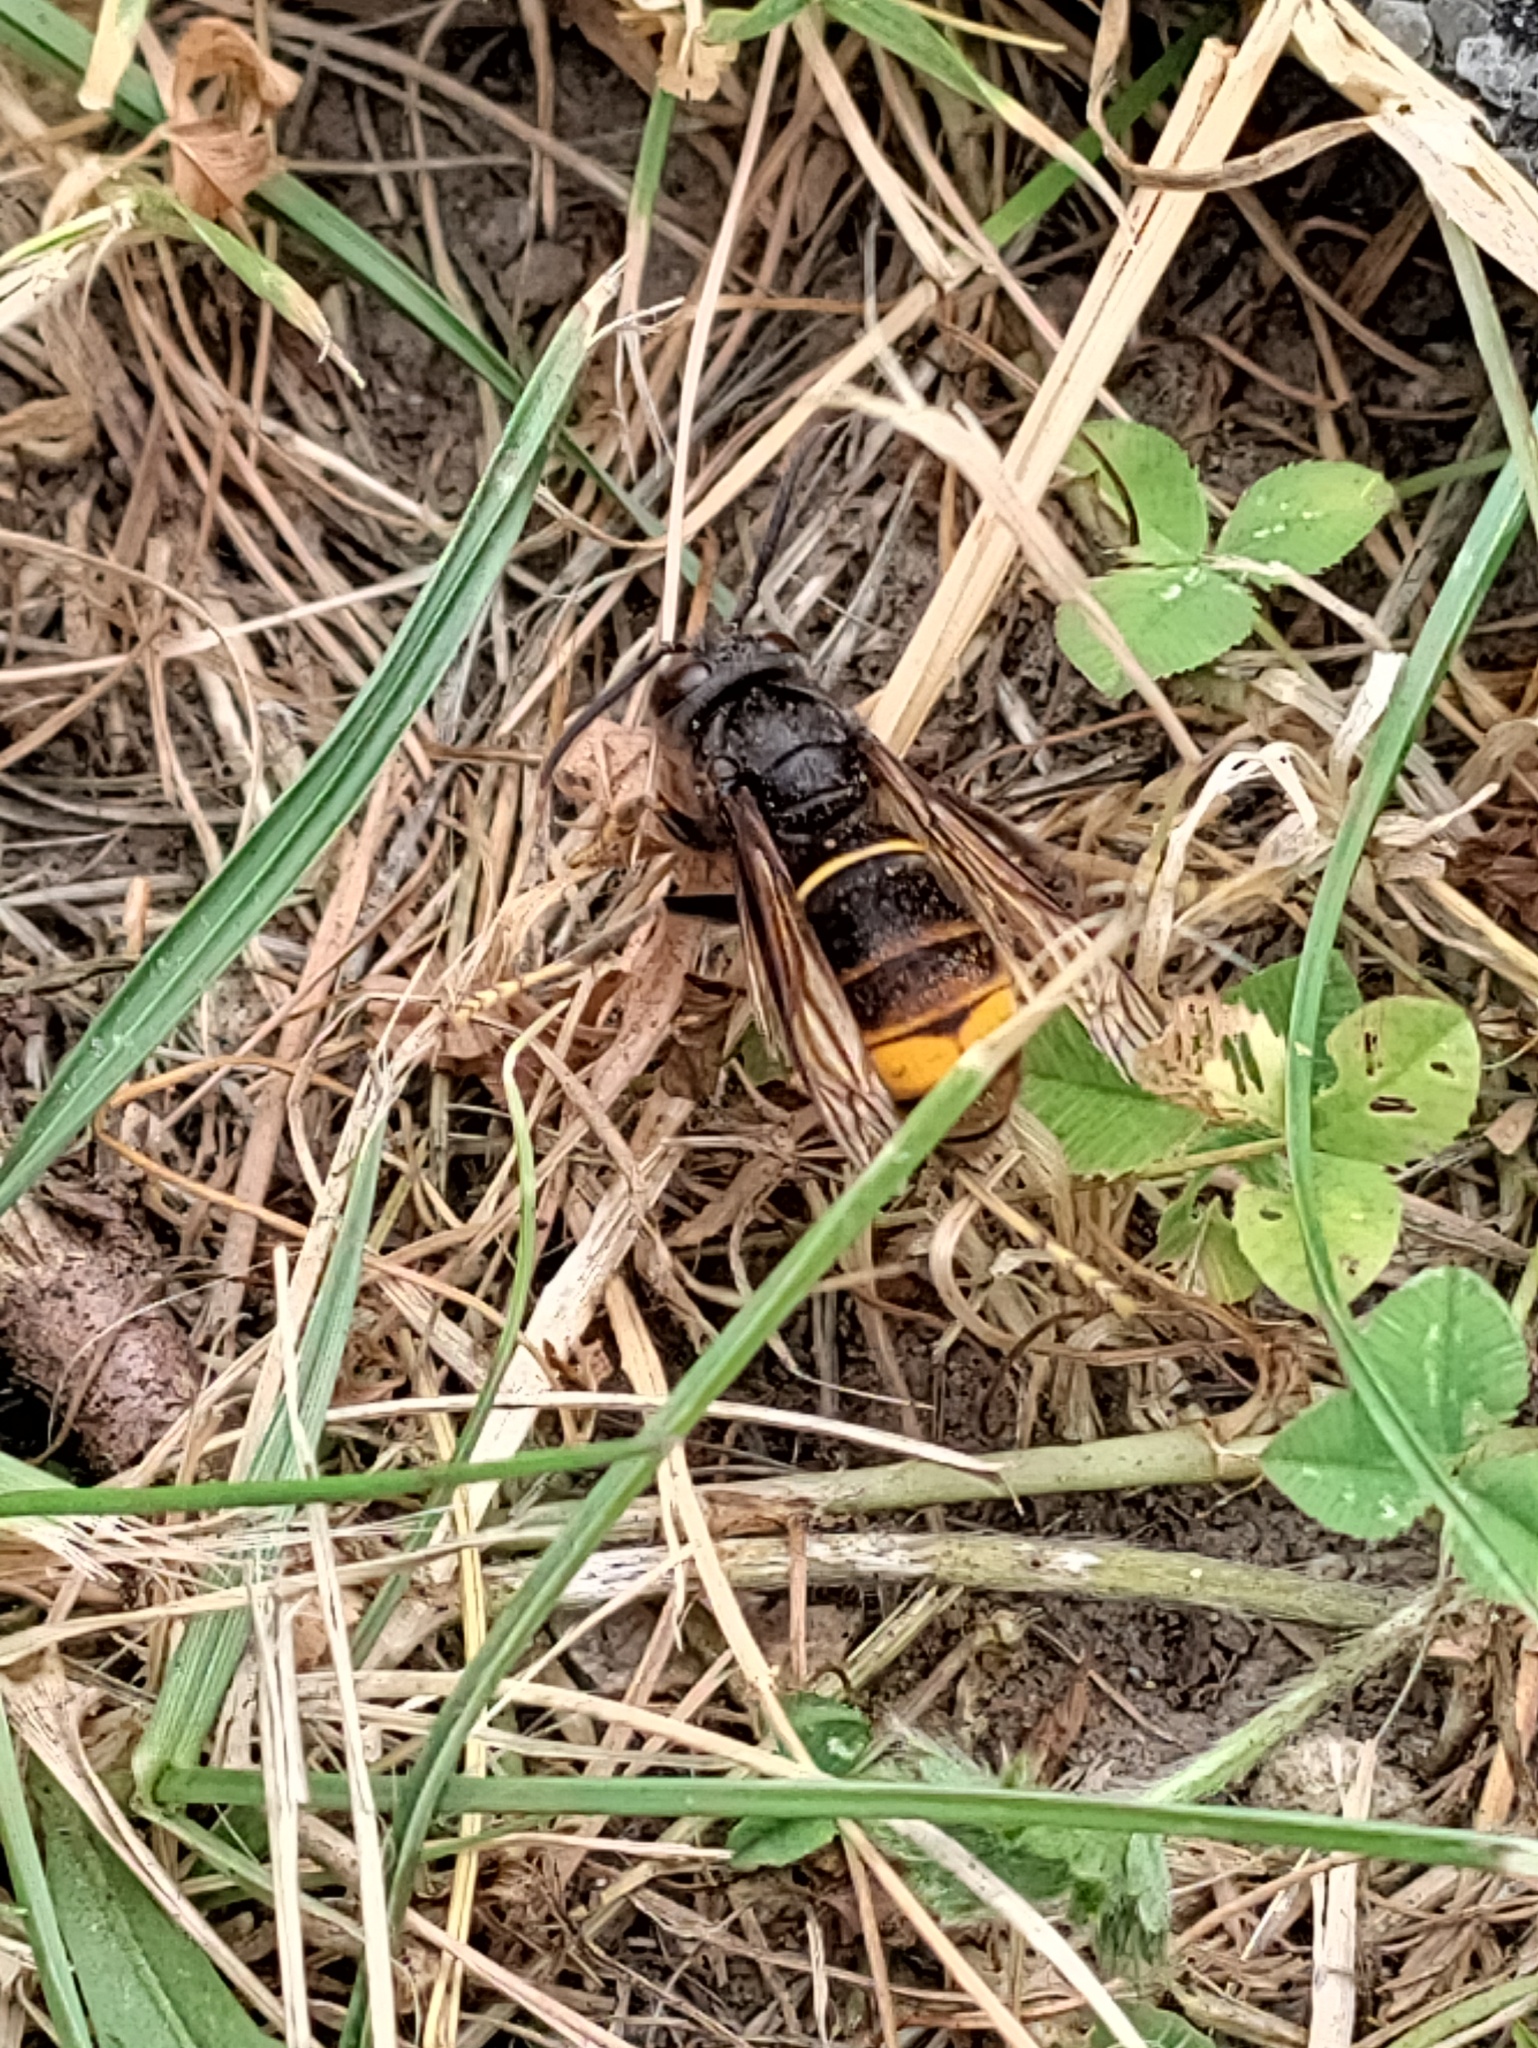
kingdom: Animalia
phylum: Arthropoda
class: Insecta
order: Hymenoptera
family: Vespidae
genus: Vespa
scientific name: Vespa velutina
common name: Asian hornet
